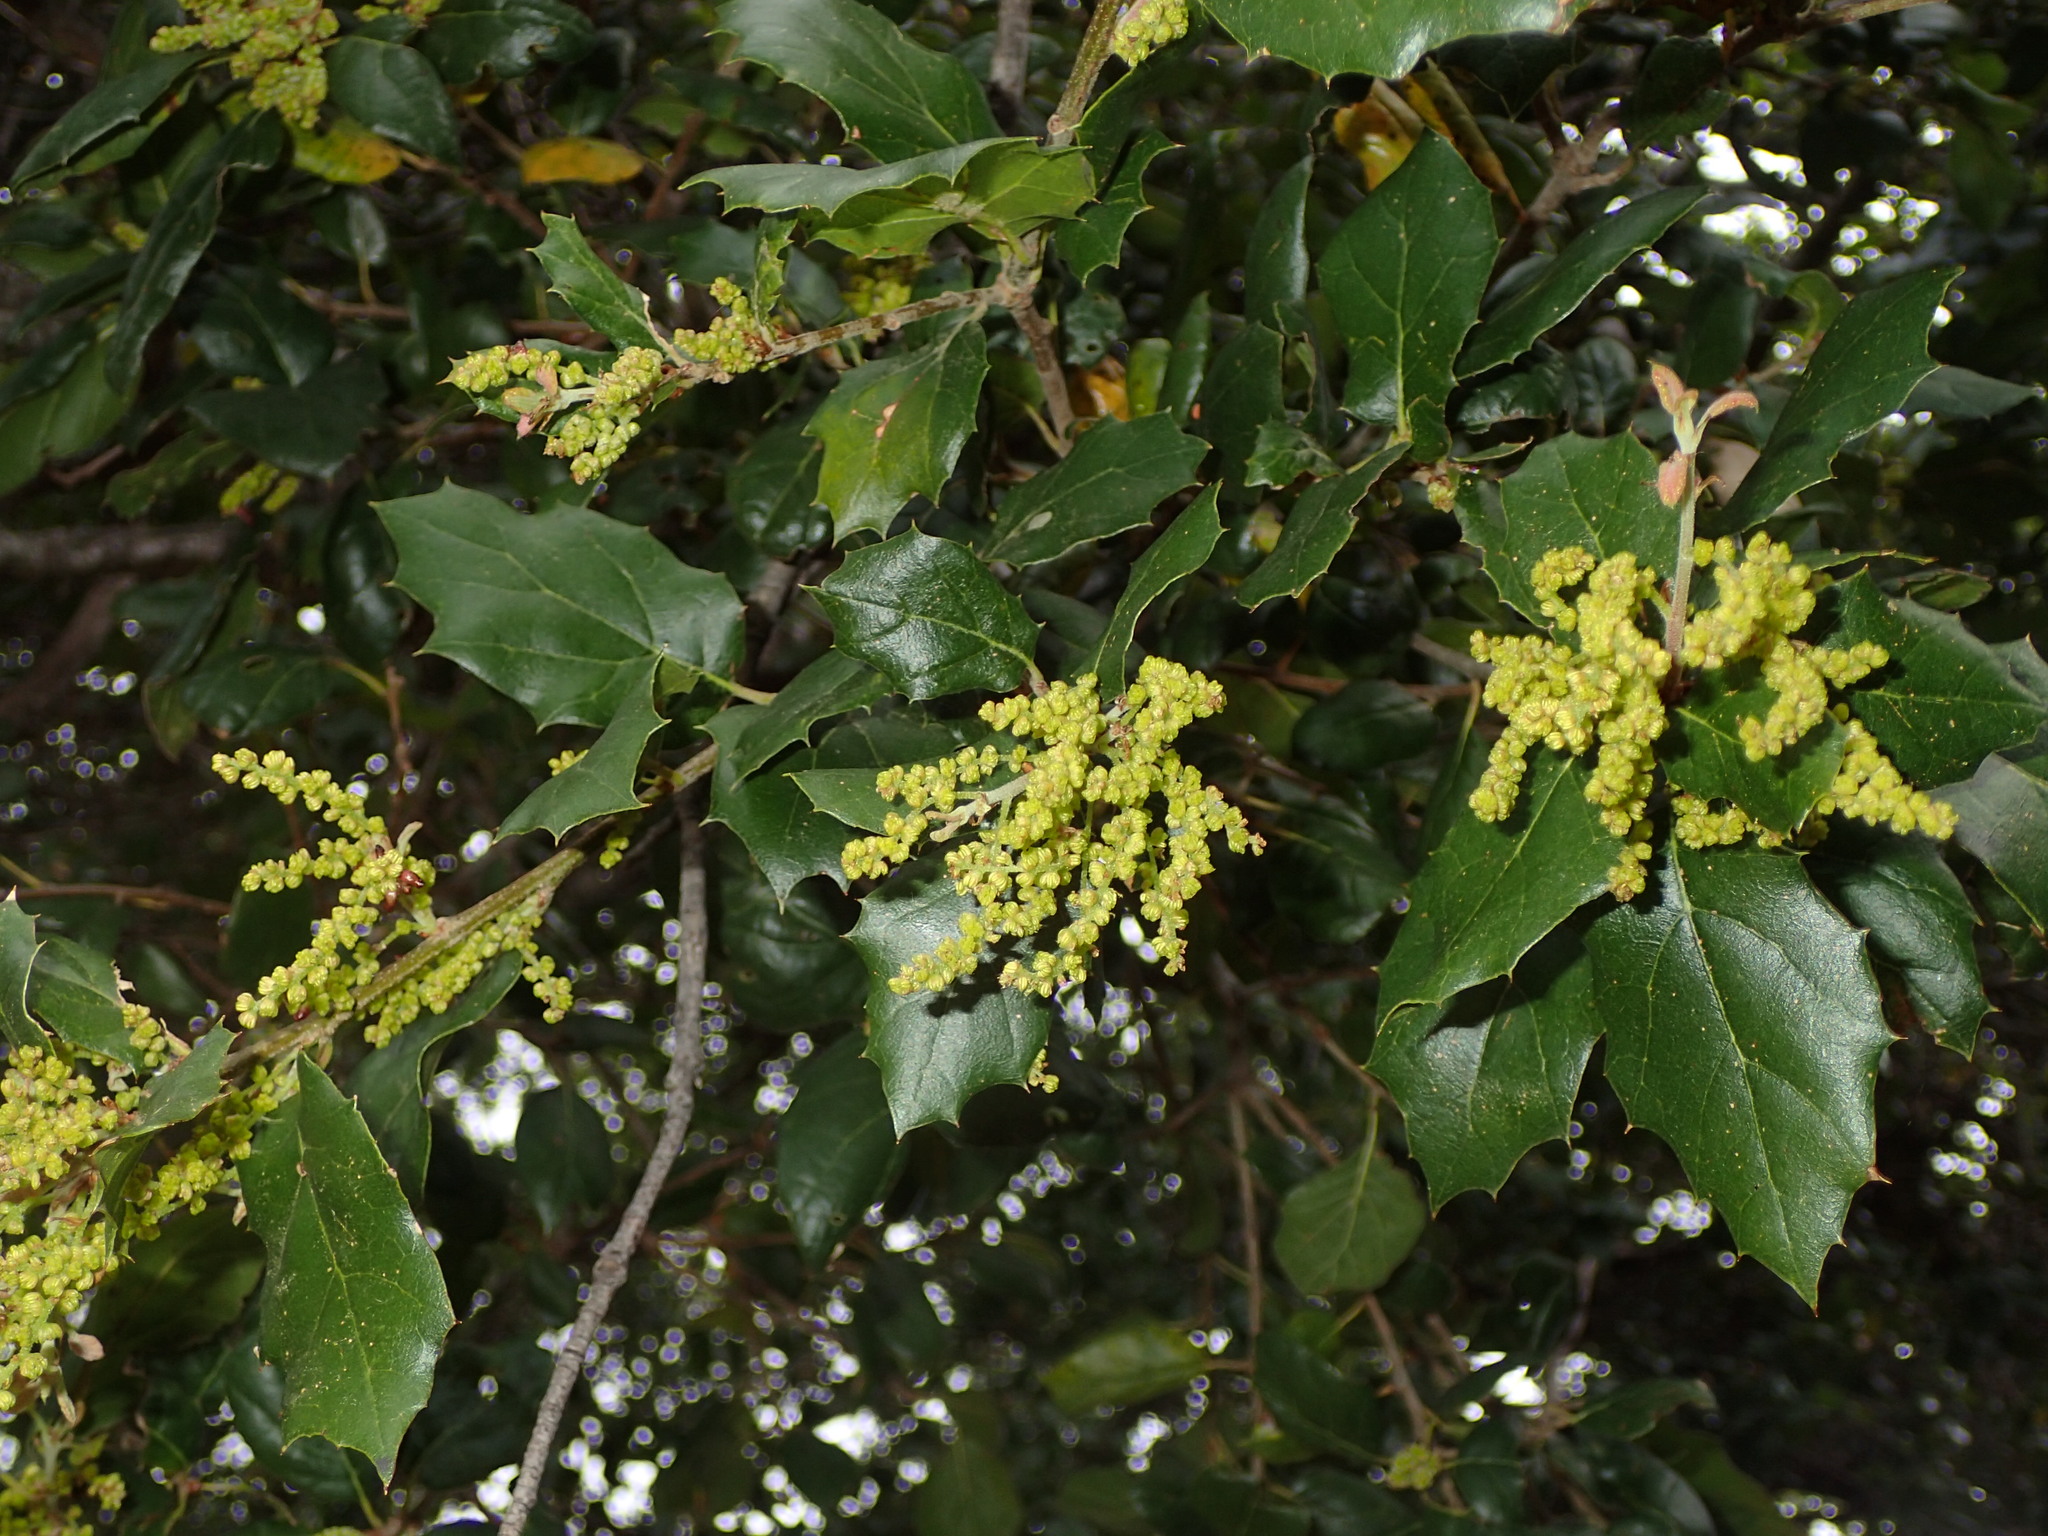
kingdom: Plantae
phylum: Tracheophyta
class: Magnoliopsida
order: Fagales
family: Fagaceae
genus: Quercus
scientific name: Quercus agrifolia
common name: California live oak
